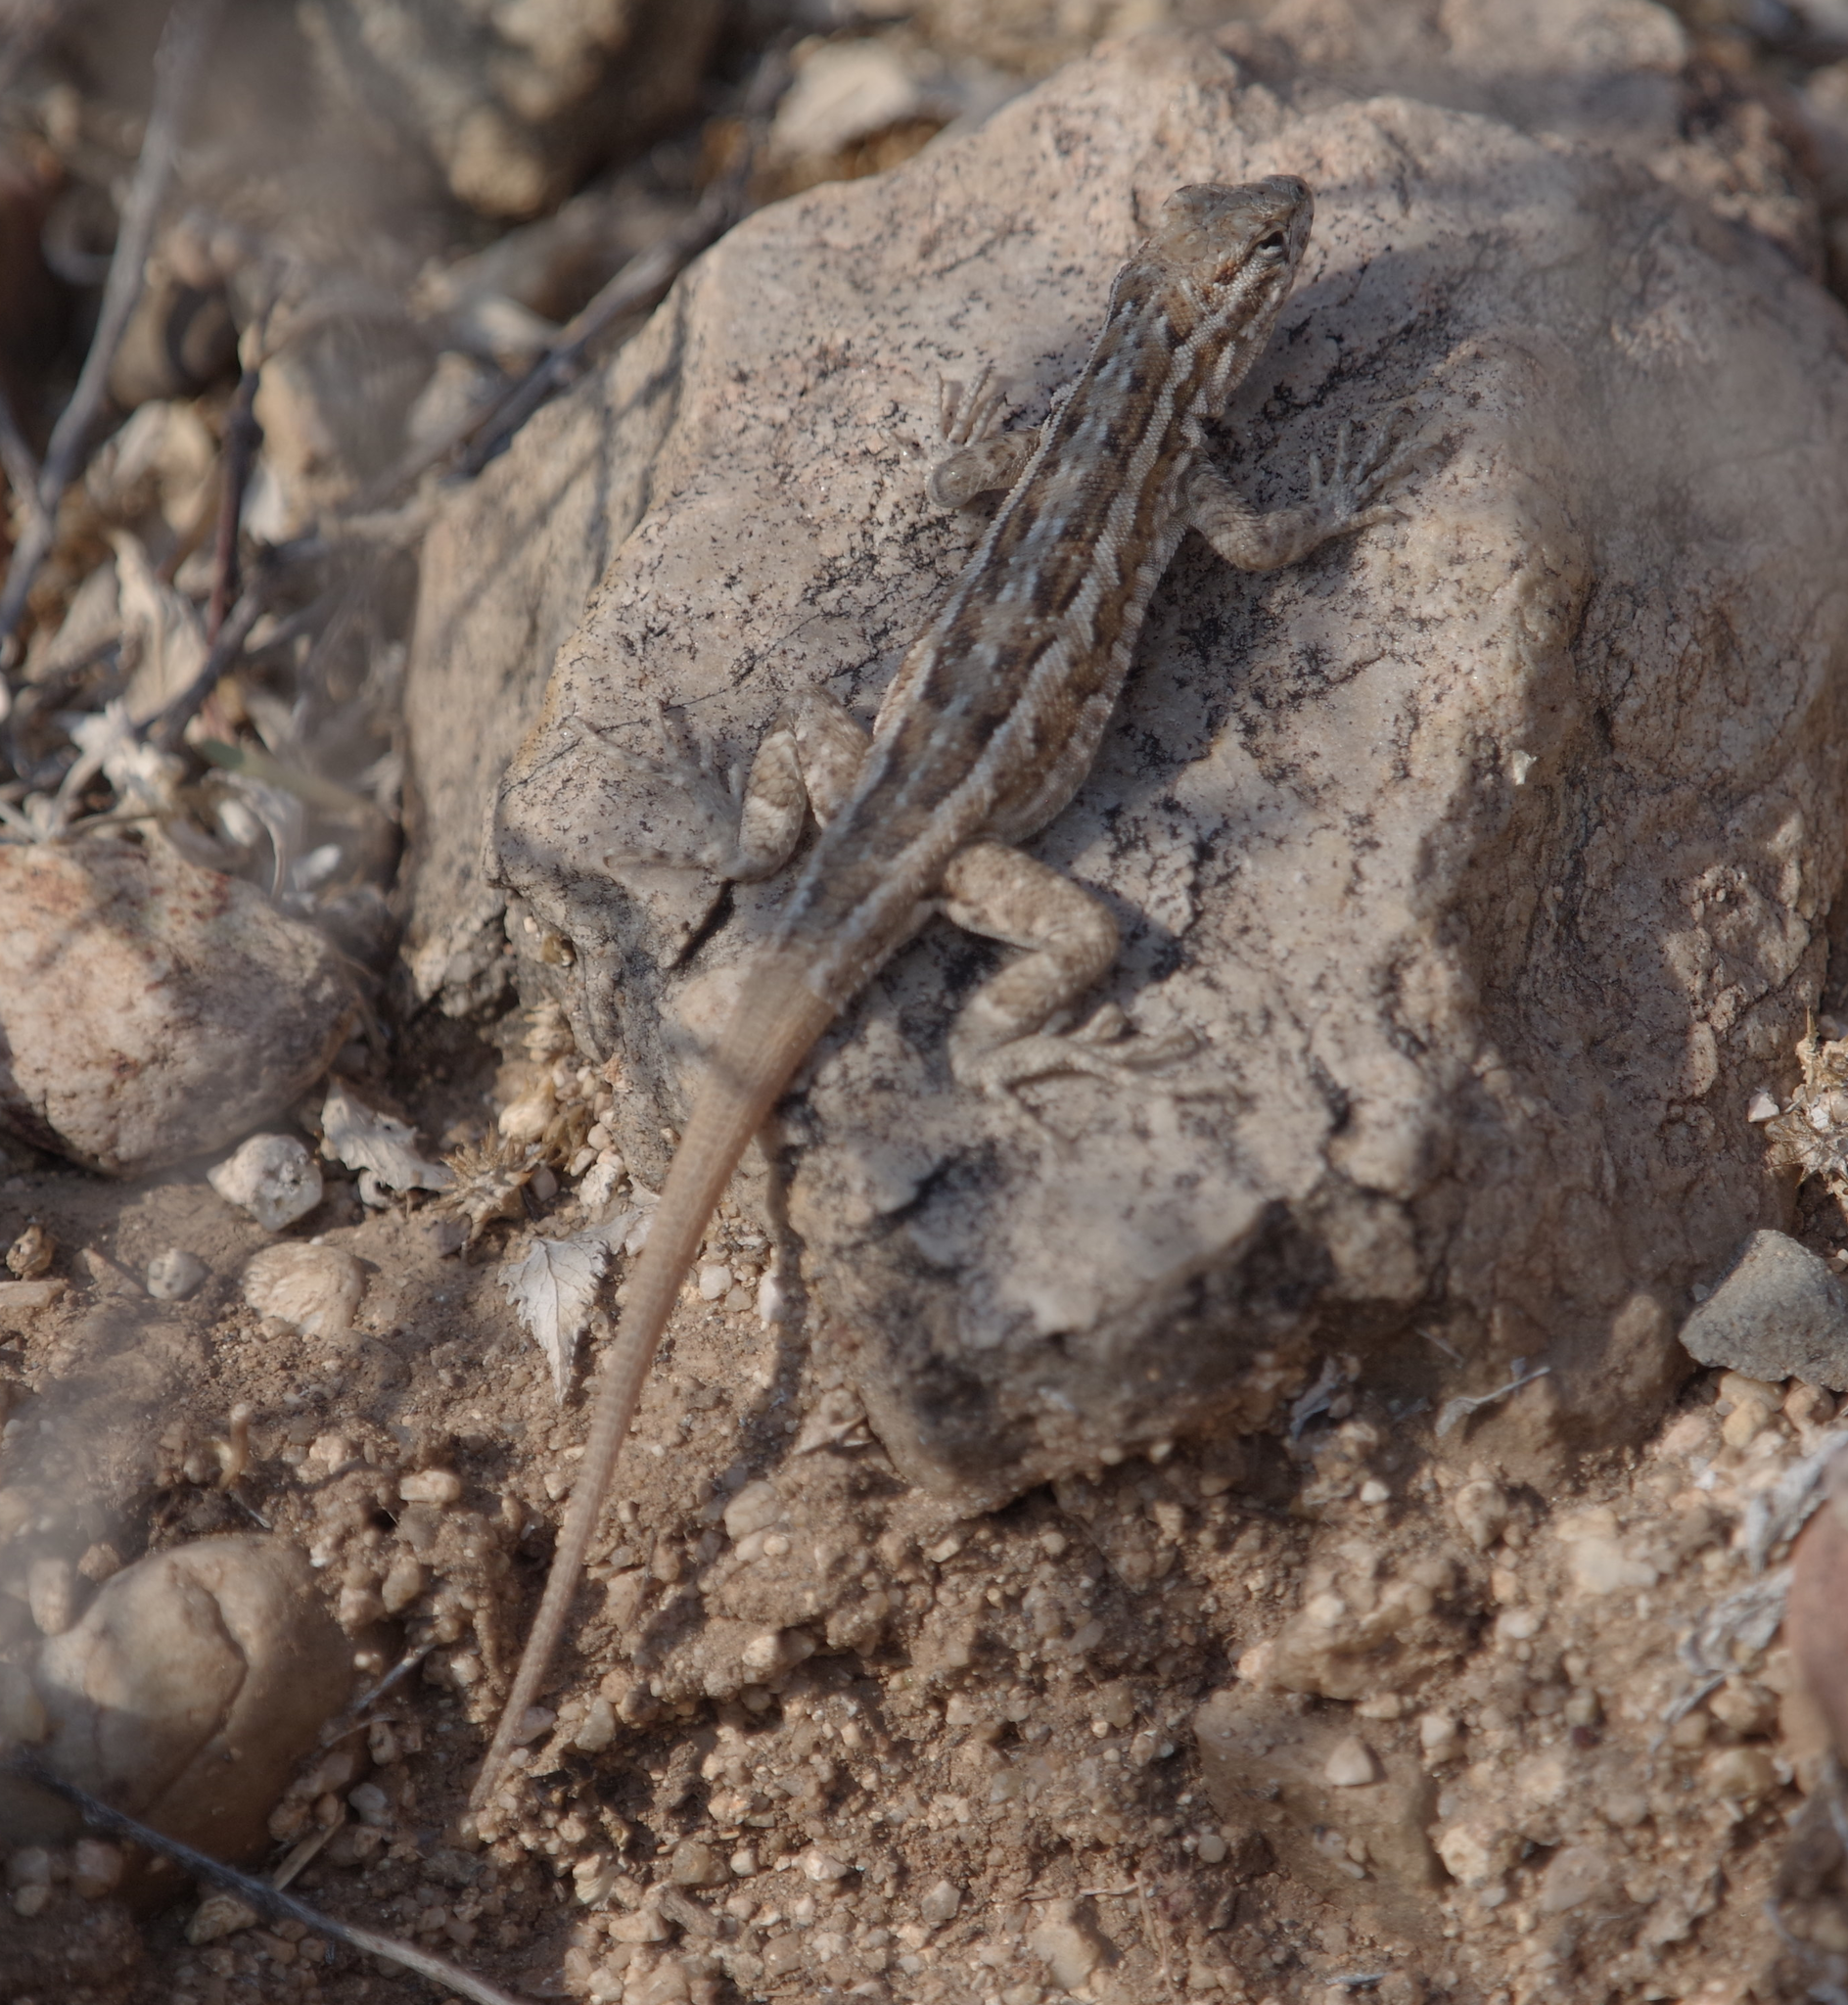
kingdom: Animalia
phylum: Chordata
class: Squamata
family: Phrynosomatidae
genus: Uta
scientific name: Uta stansburiana
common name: Side-blotched lizard
